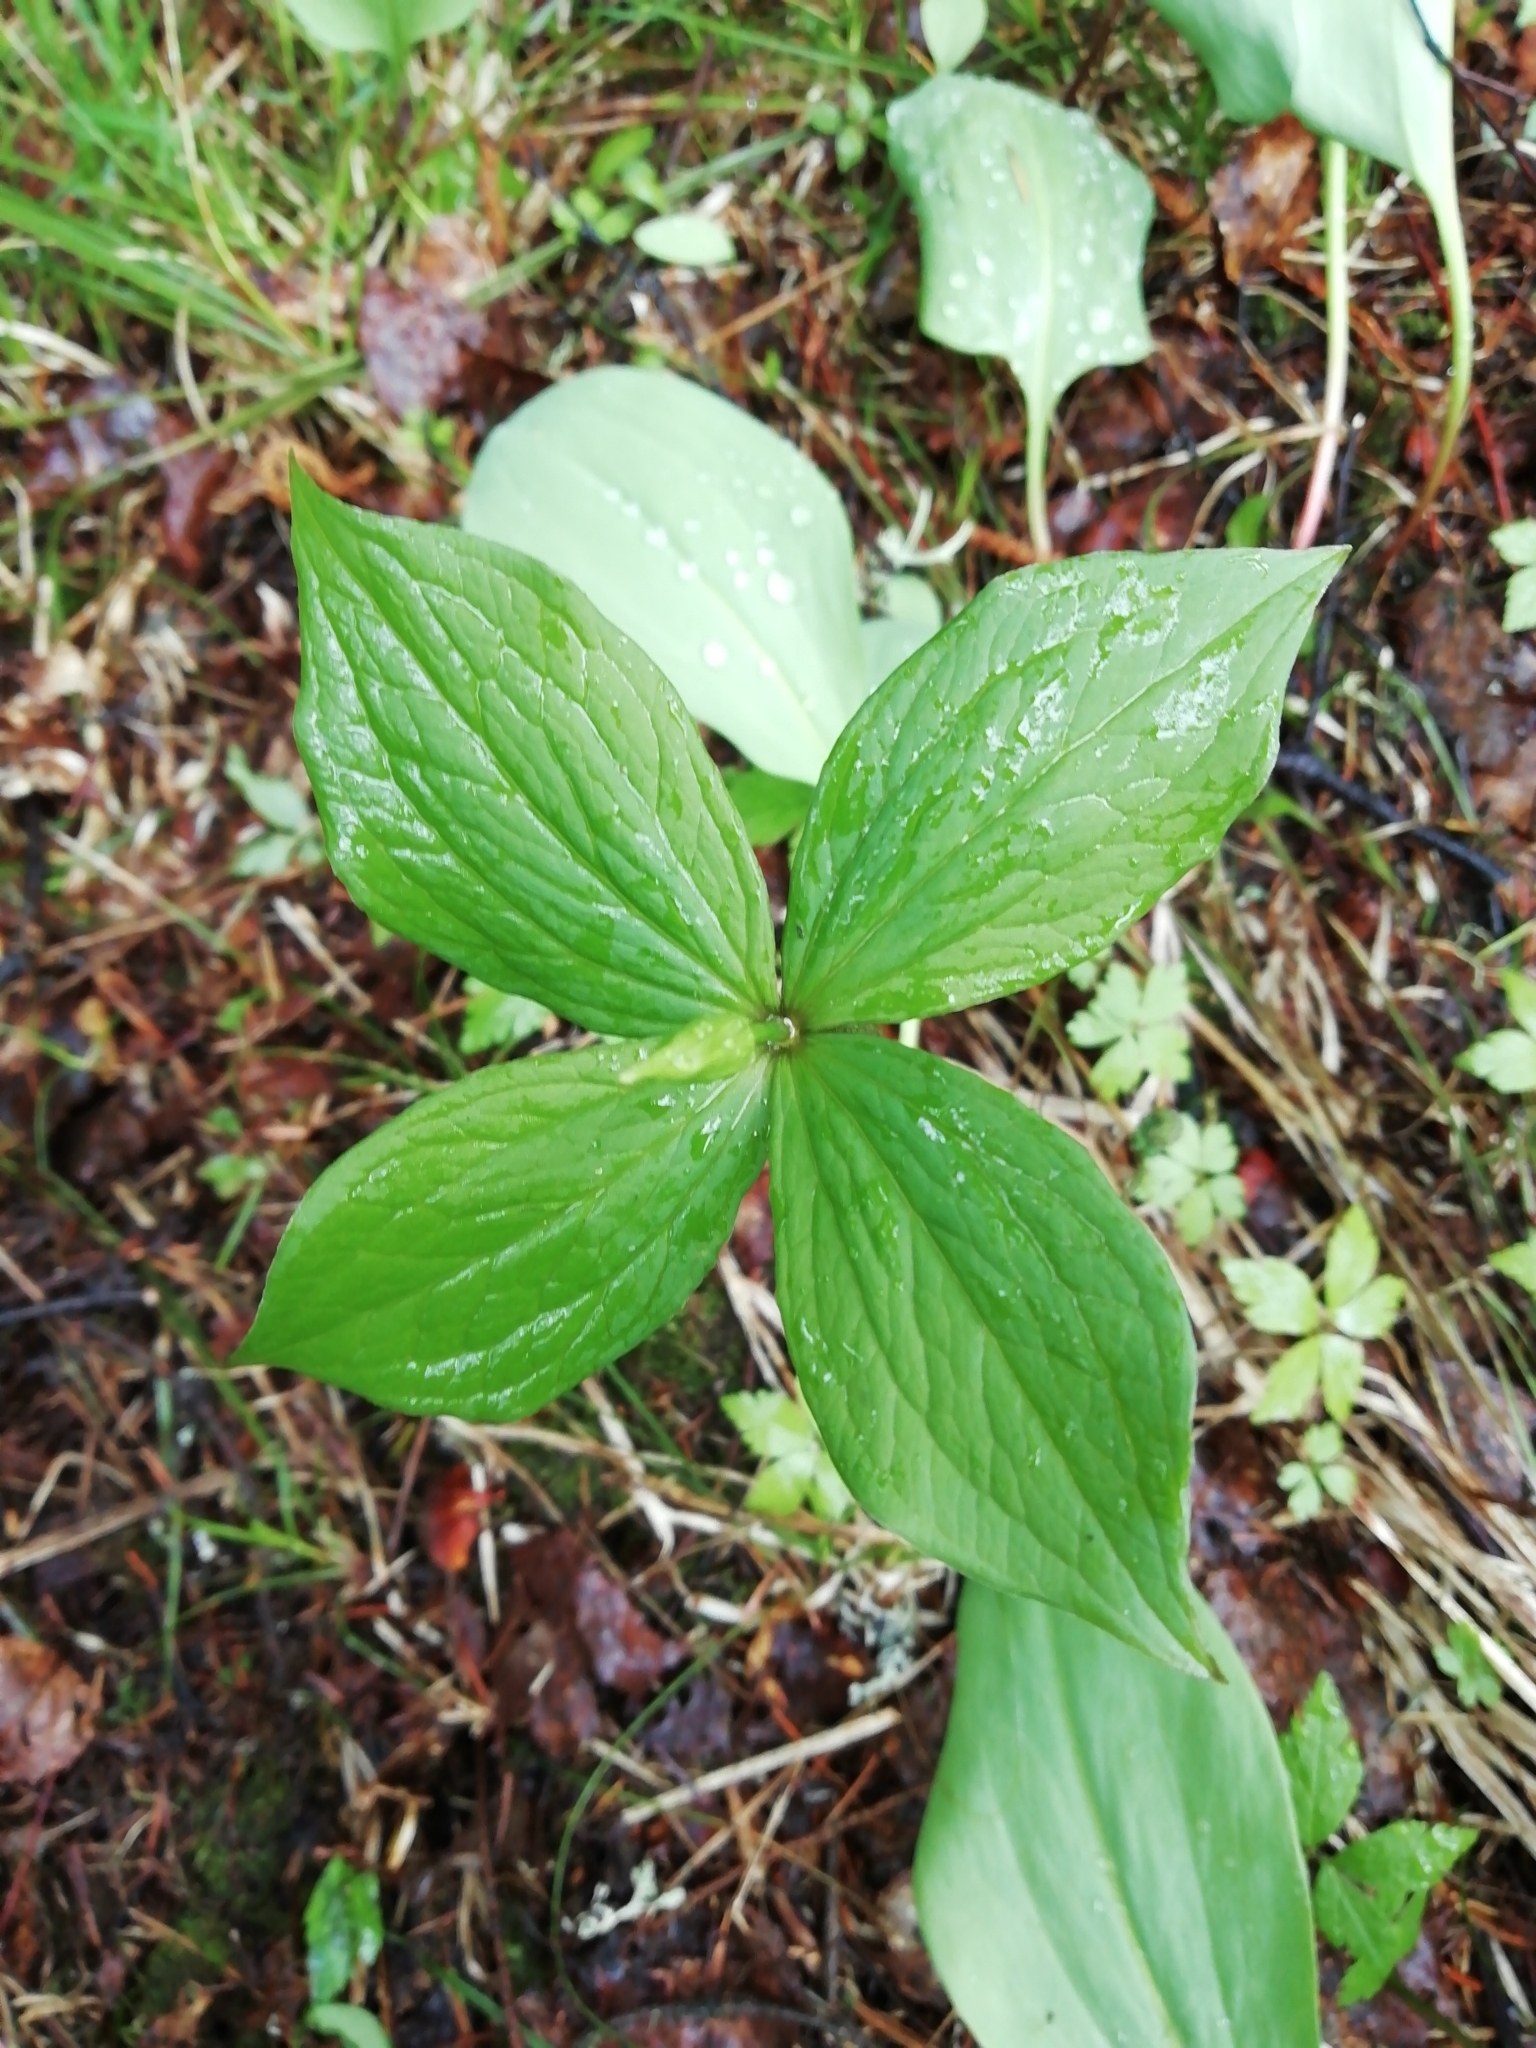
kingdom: Plantae
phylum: Tracheophyta
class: Liliopsida
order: Liliales
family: Melanthiaceae
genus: Paris
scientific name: Paris quadrifolia
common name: Herb-paris
